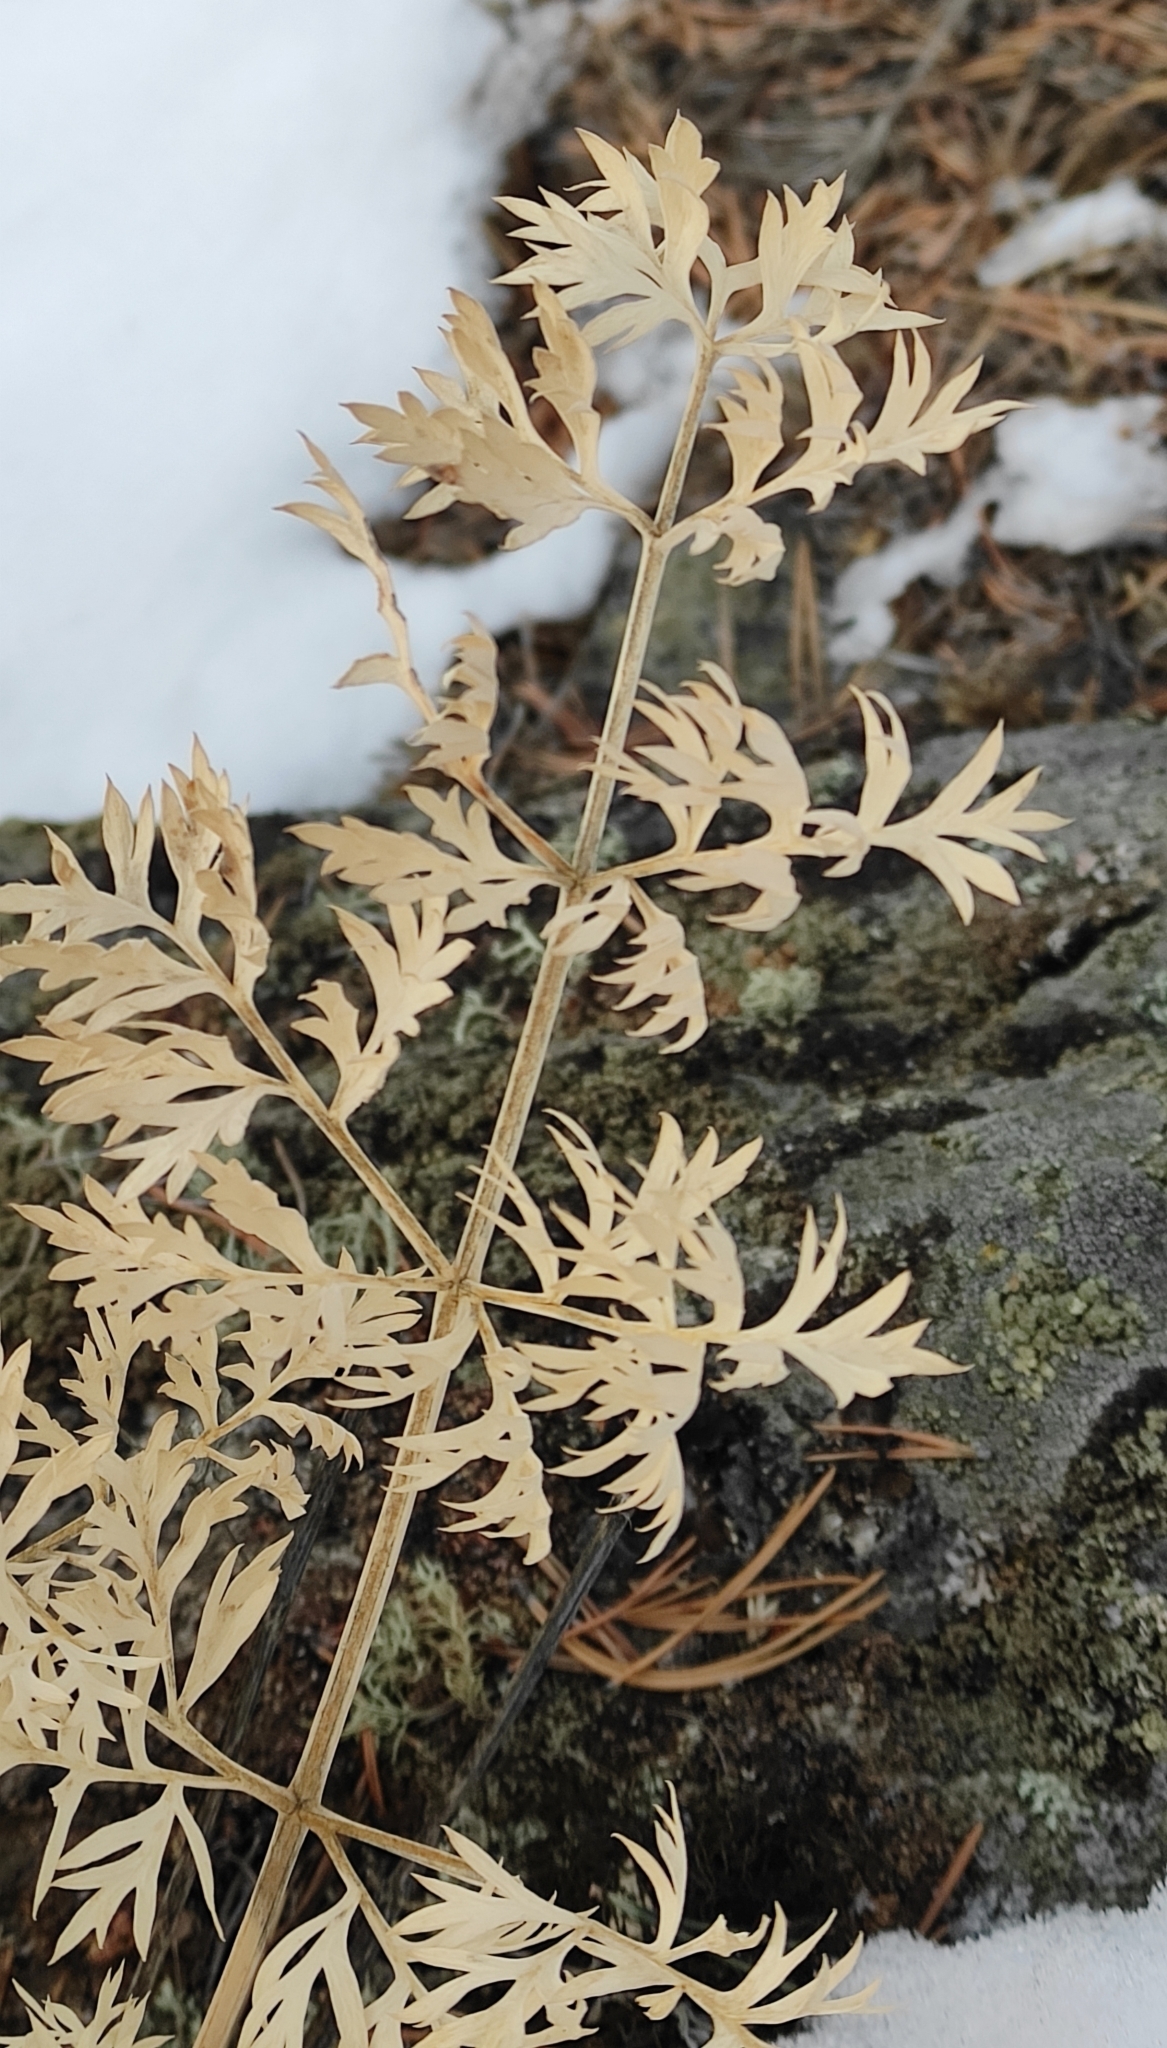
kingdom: Plantae
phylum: Tracheophyta
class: Magnoliopsida
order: Apiales
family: Apiaceae
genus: Phlojodicarpus
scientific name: Phlojodicarpus sibiricus
